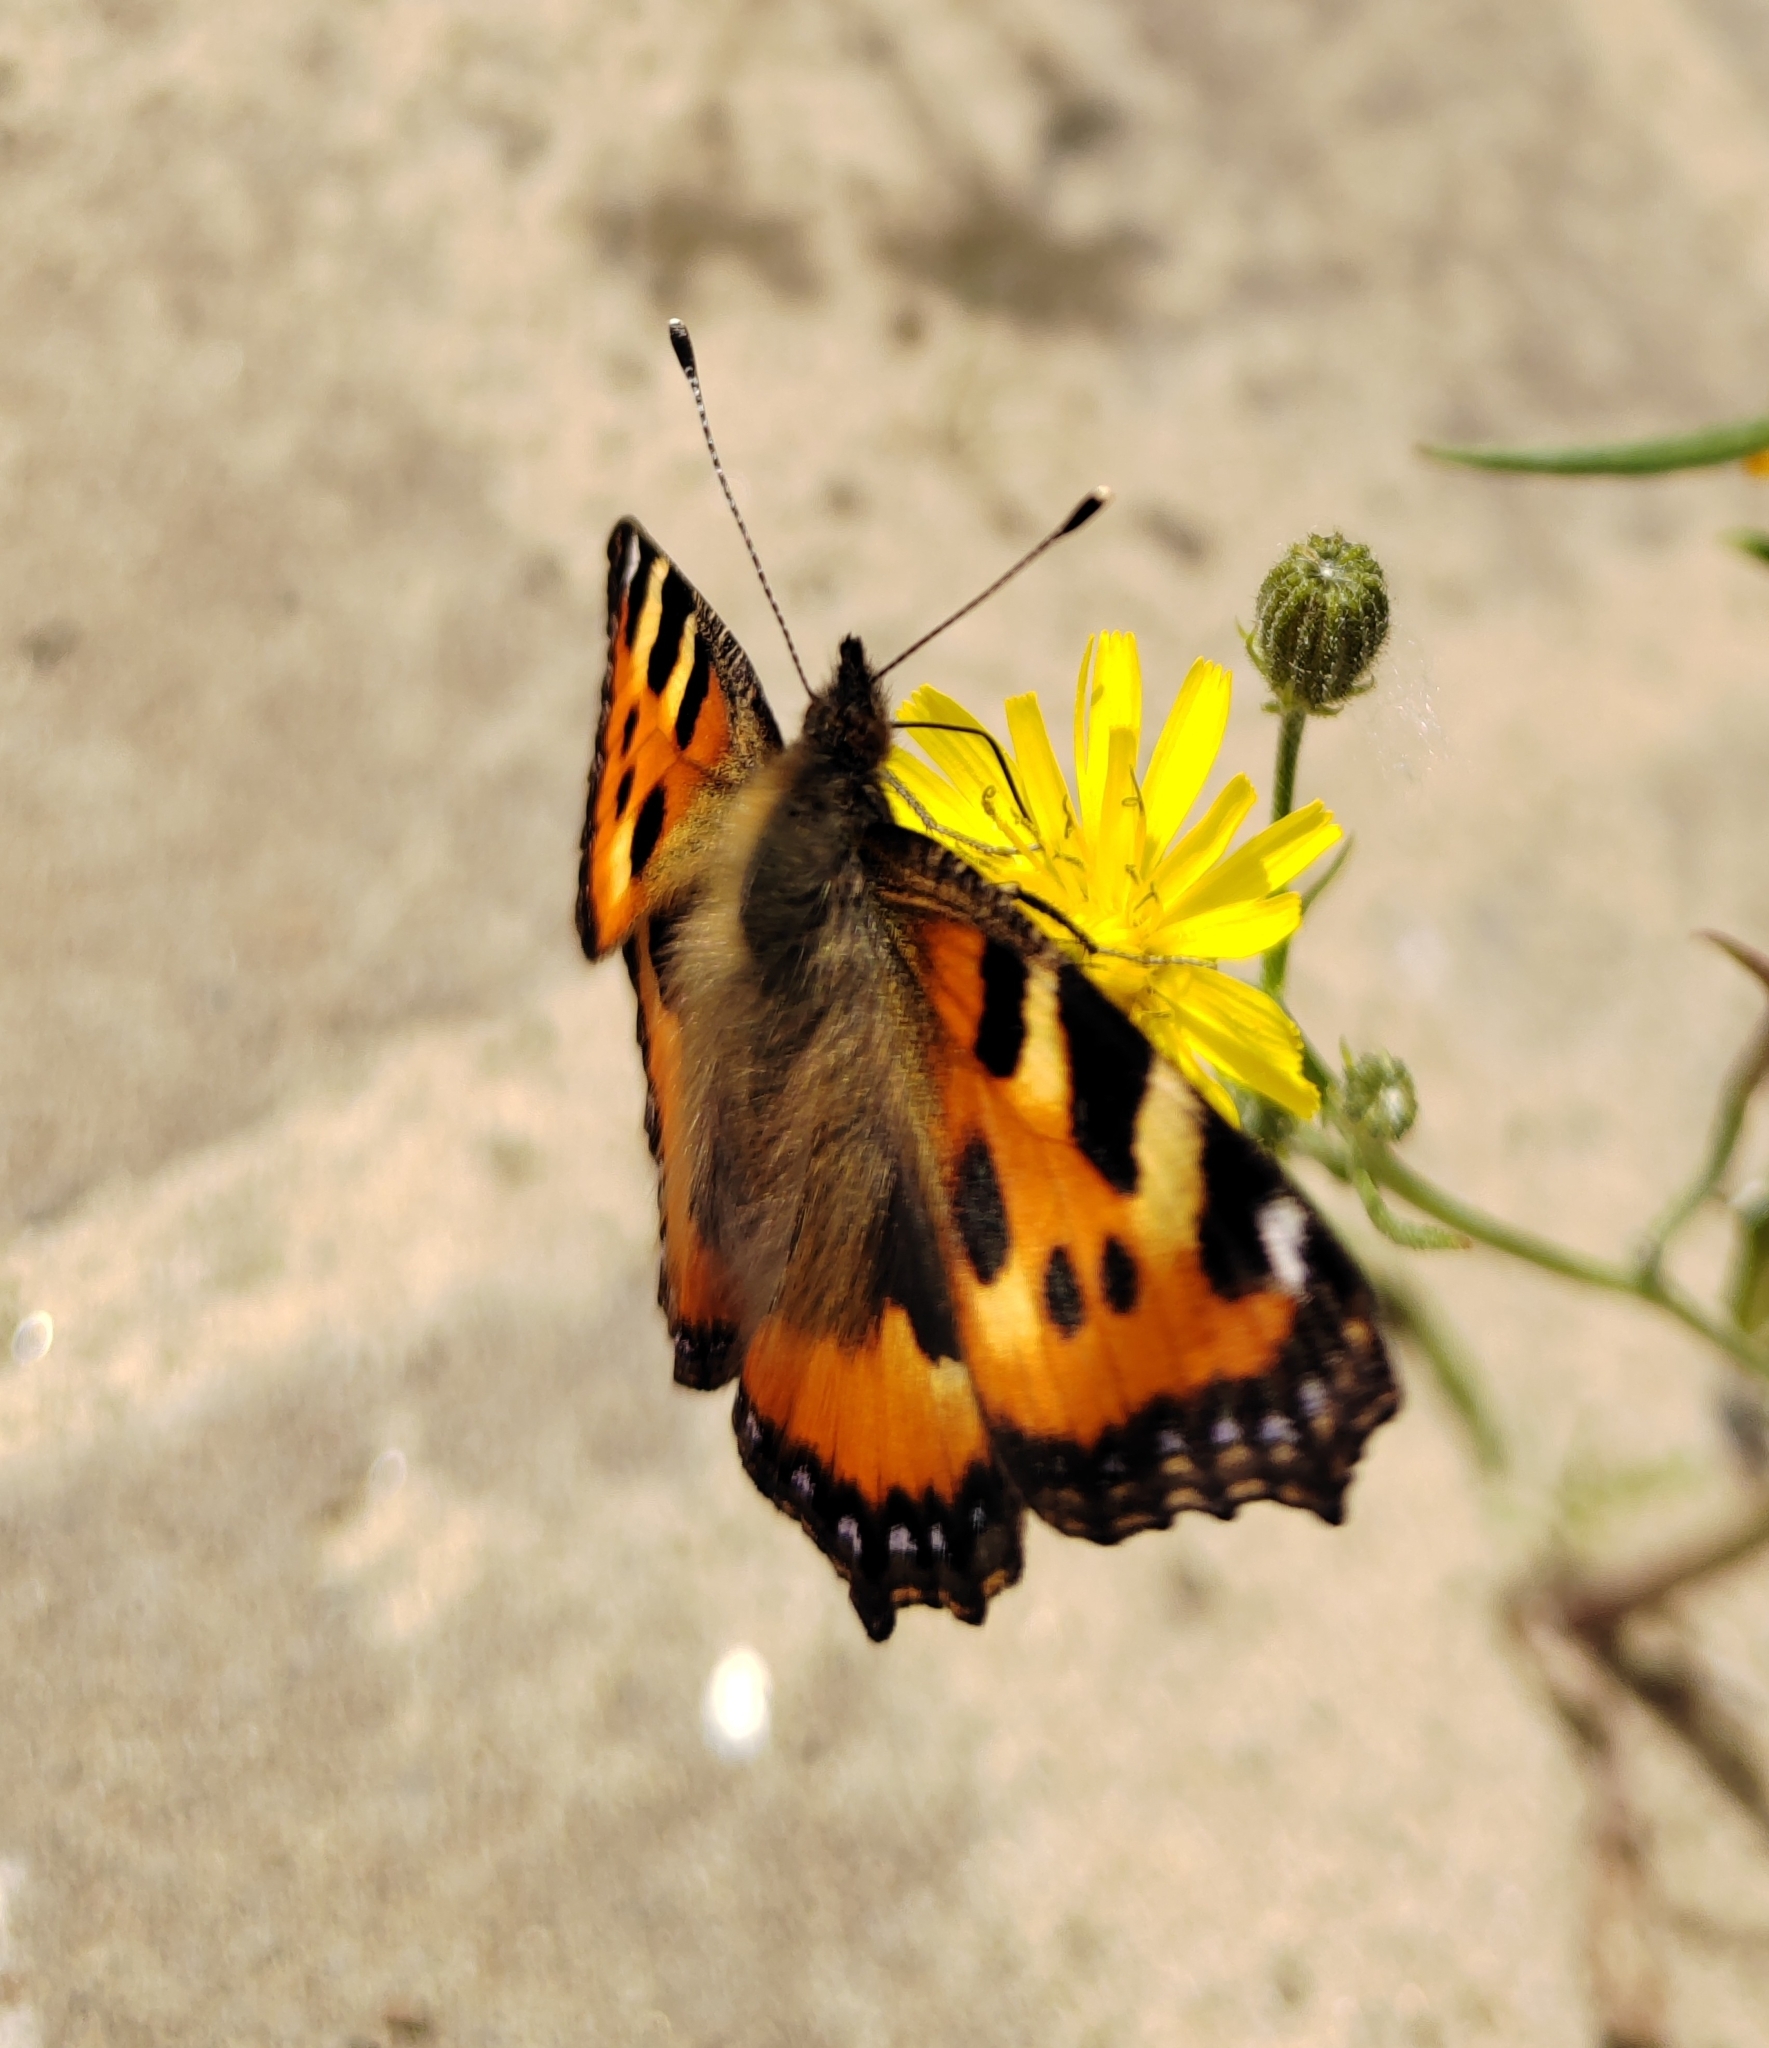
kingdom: Animalia
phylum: Arthropoda
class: Insecta
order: Lepidoptera
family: Nymphalidae
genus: Aglais
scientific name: Aglais urticae
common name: Small tortoiseshell
